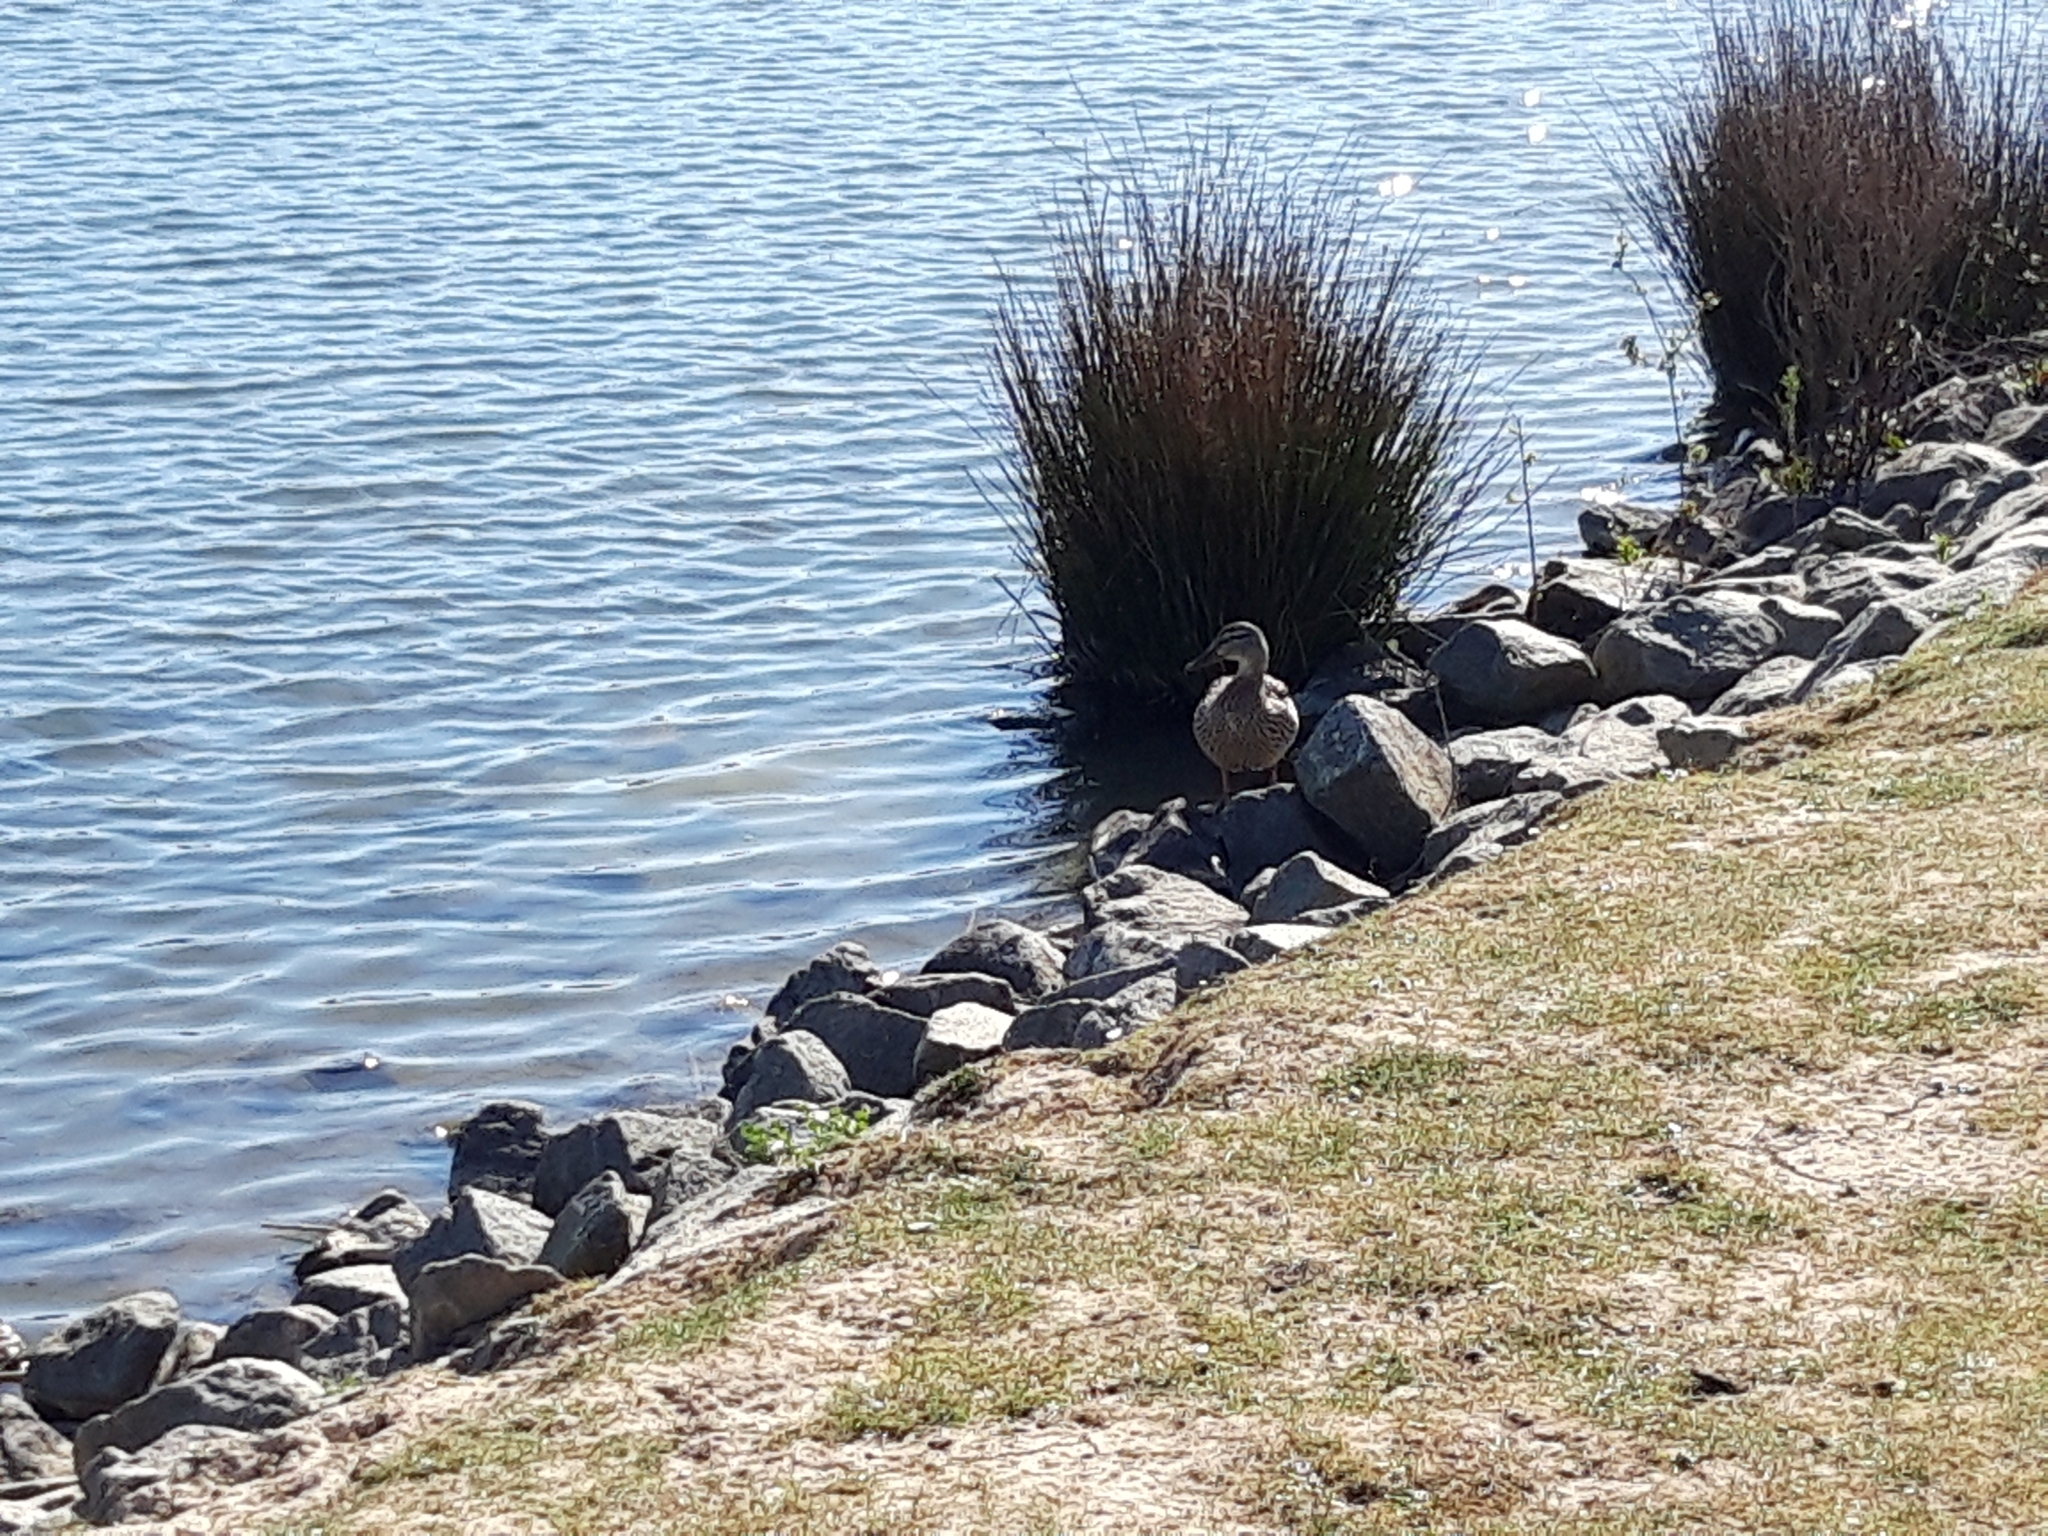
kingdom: Animalia
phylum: Chordata
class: Aves
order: Anseriformes
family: Anatidae
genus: Anas
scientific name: Anas platyrhynchos
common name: Mallard
